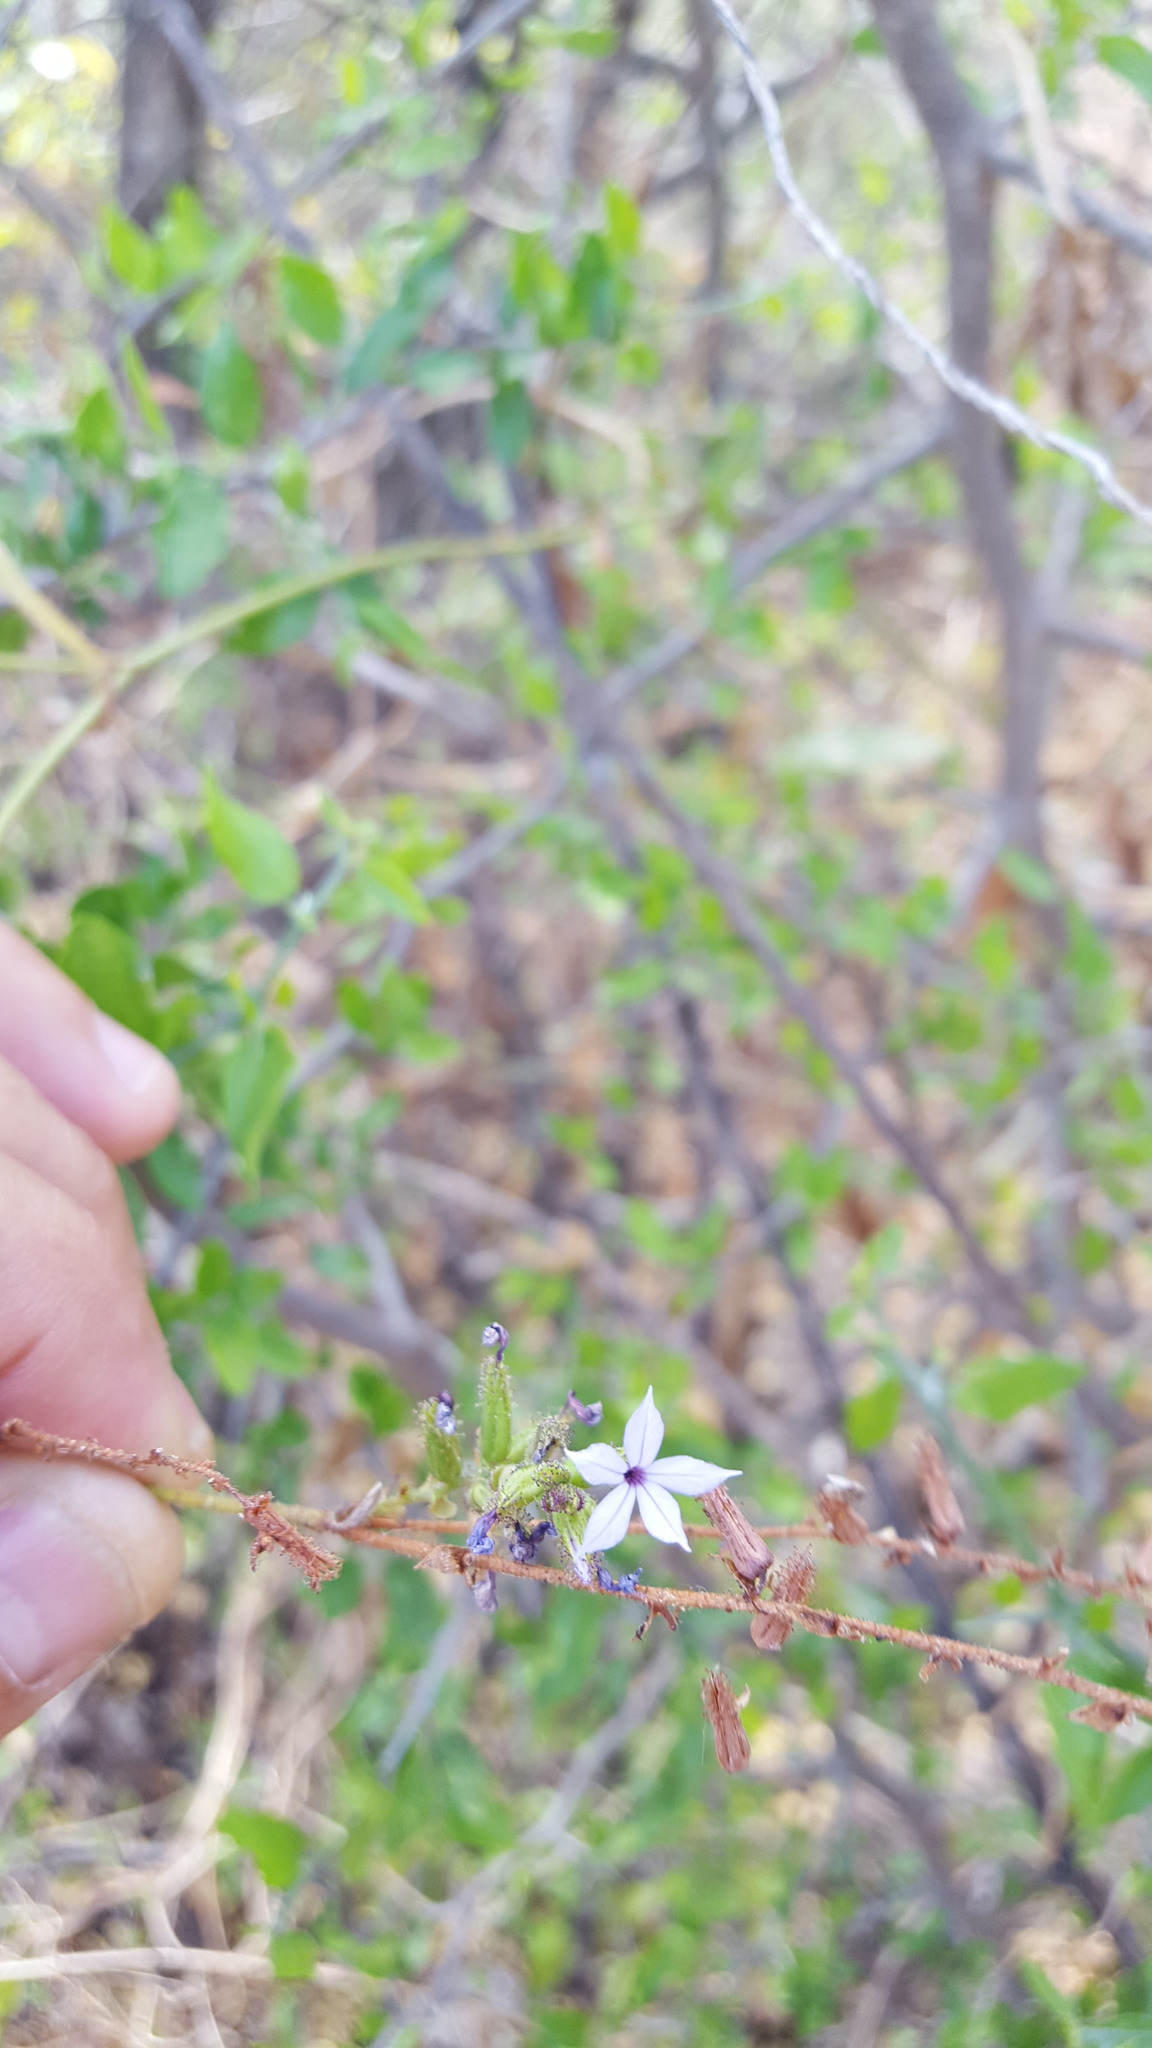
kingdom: Plantae
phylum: Tracheophyta
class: Magnoliopsida
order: Caryophyllales
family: Plumbaginaceae
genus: Plumbago
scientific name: Plumbago pulchella
